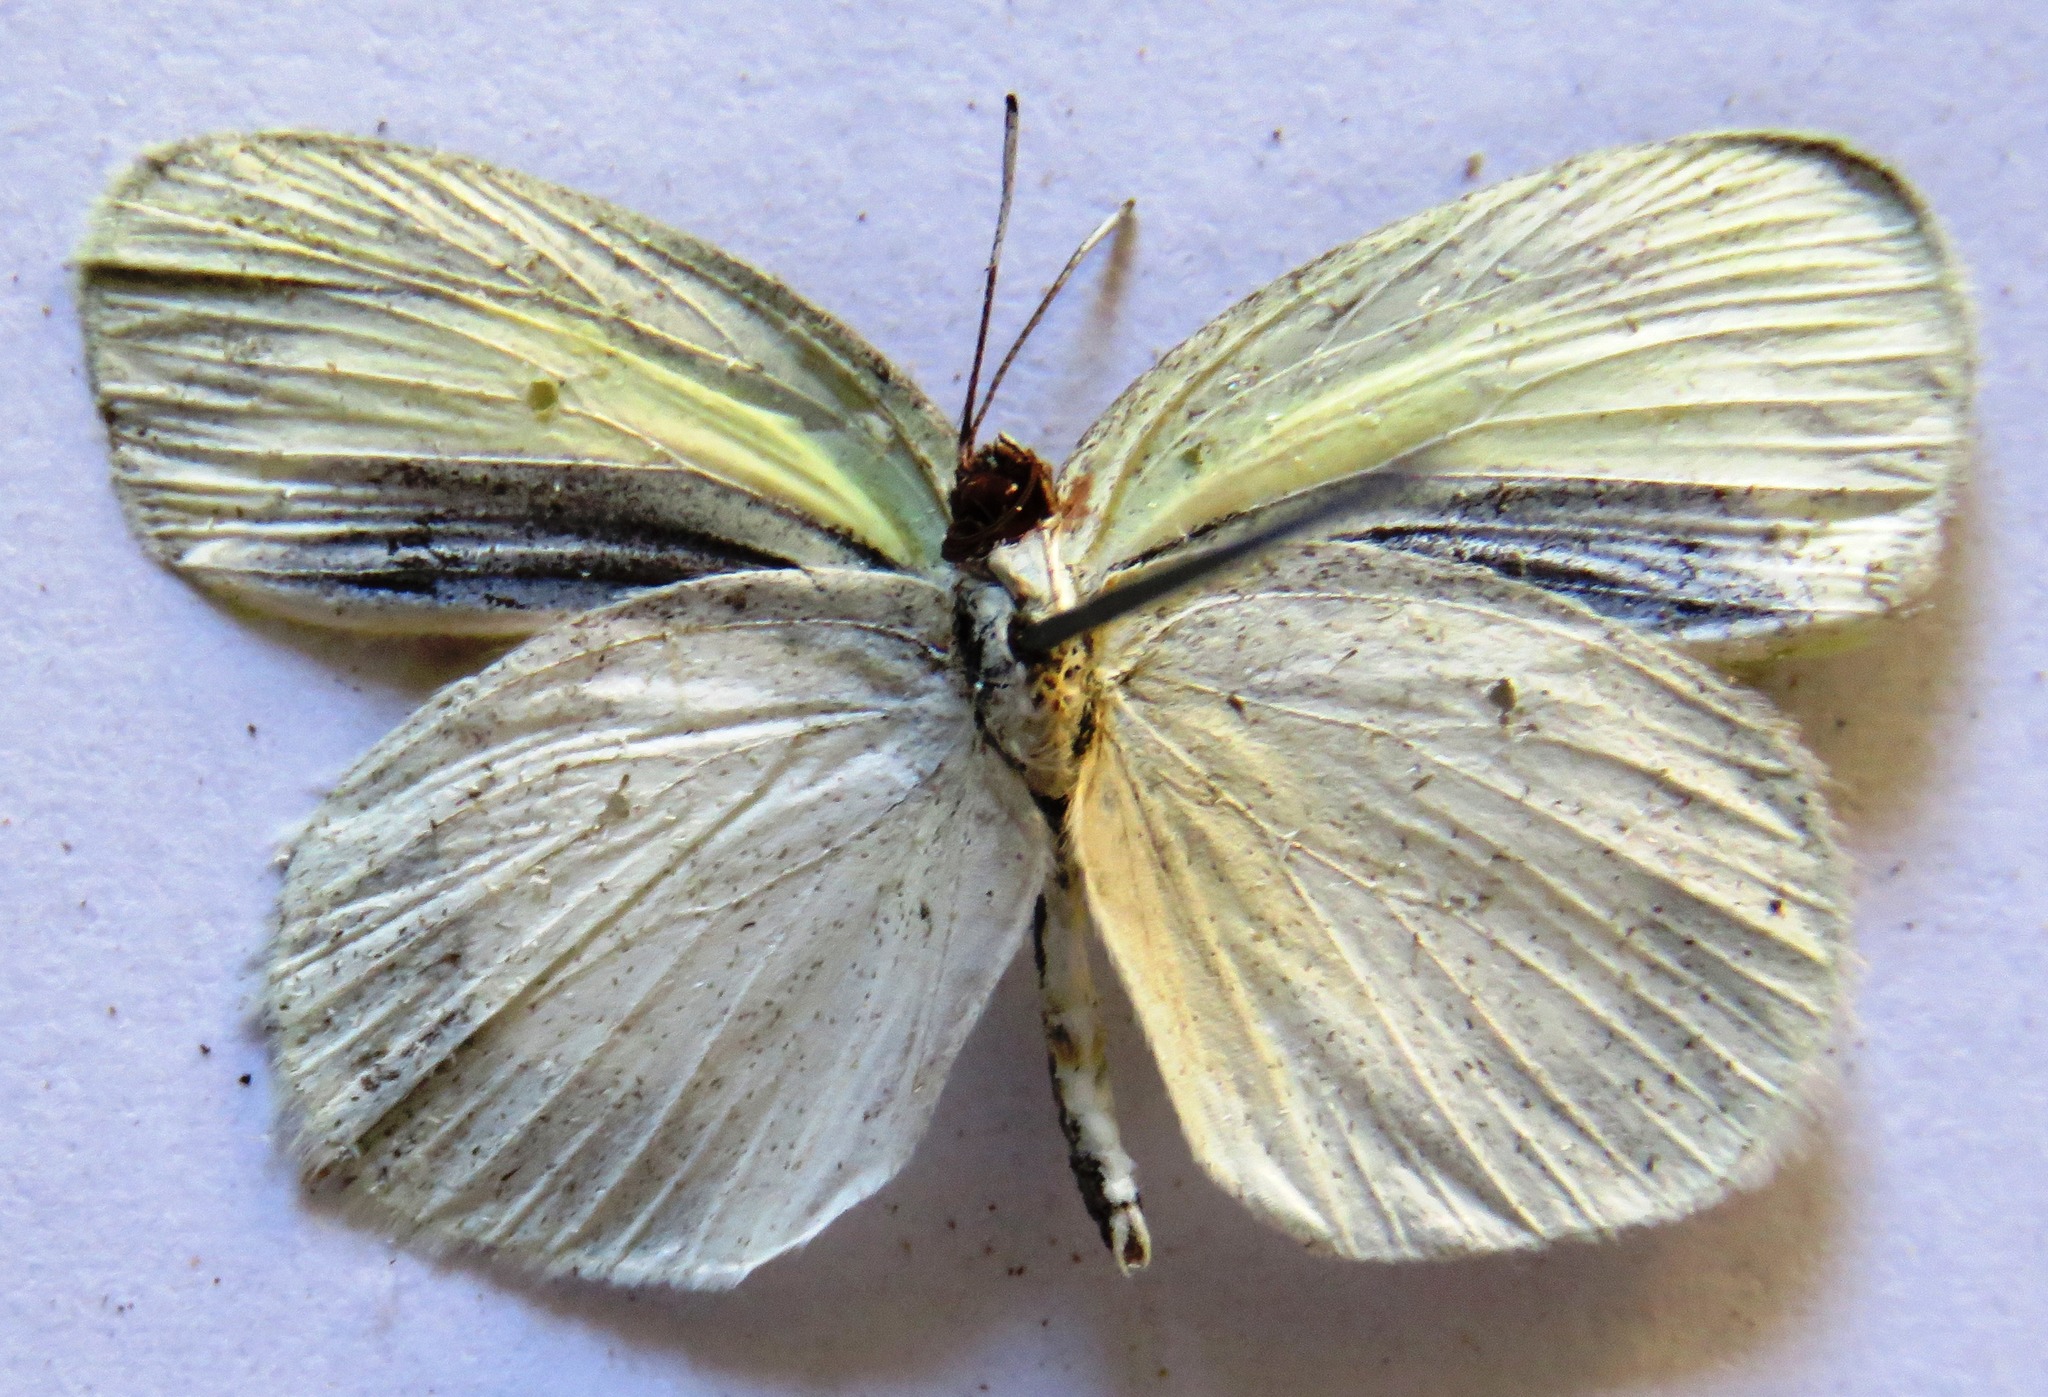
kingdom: Animalia
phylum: Arthropoda
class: Insecta
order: Lepidoptera
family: Pieridae
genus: Eurema
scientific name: Eurema daira
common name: Barred sulphur
